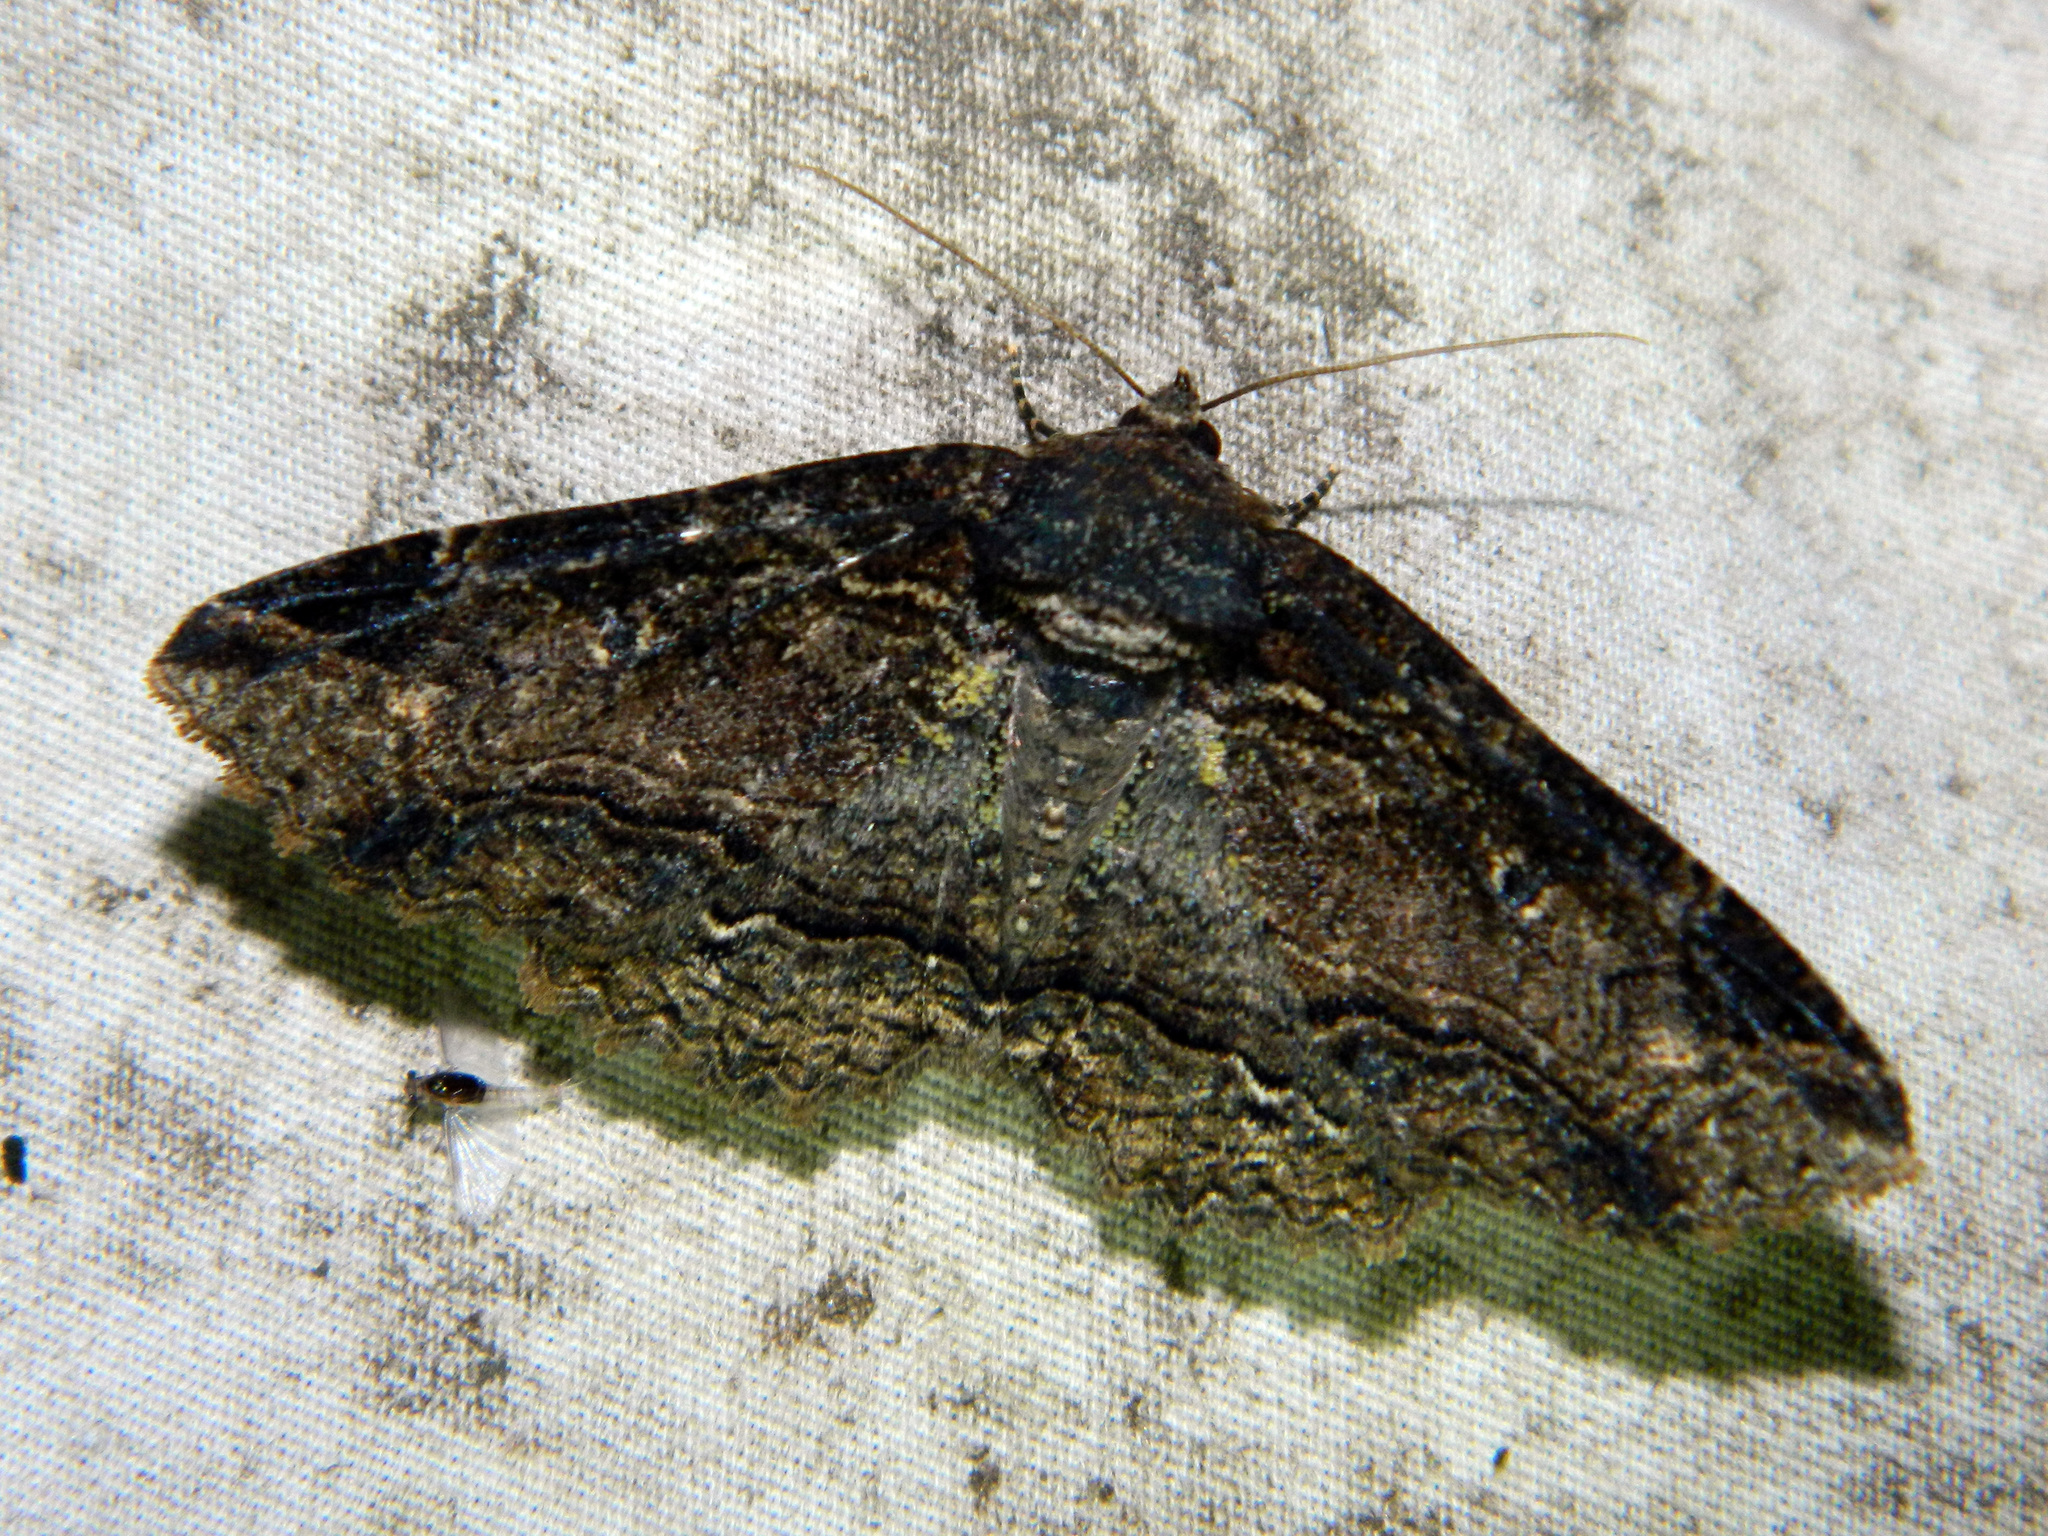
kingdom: Animalia
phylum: Arthropoda
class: Insecta
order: Lepidoptera
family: Erebidae
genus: Zale
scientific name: Zale minerea
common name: Colorful zale moth
